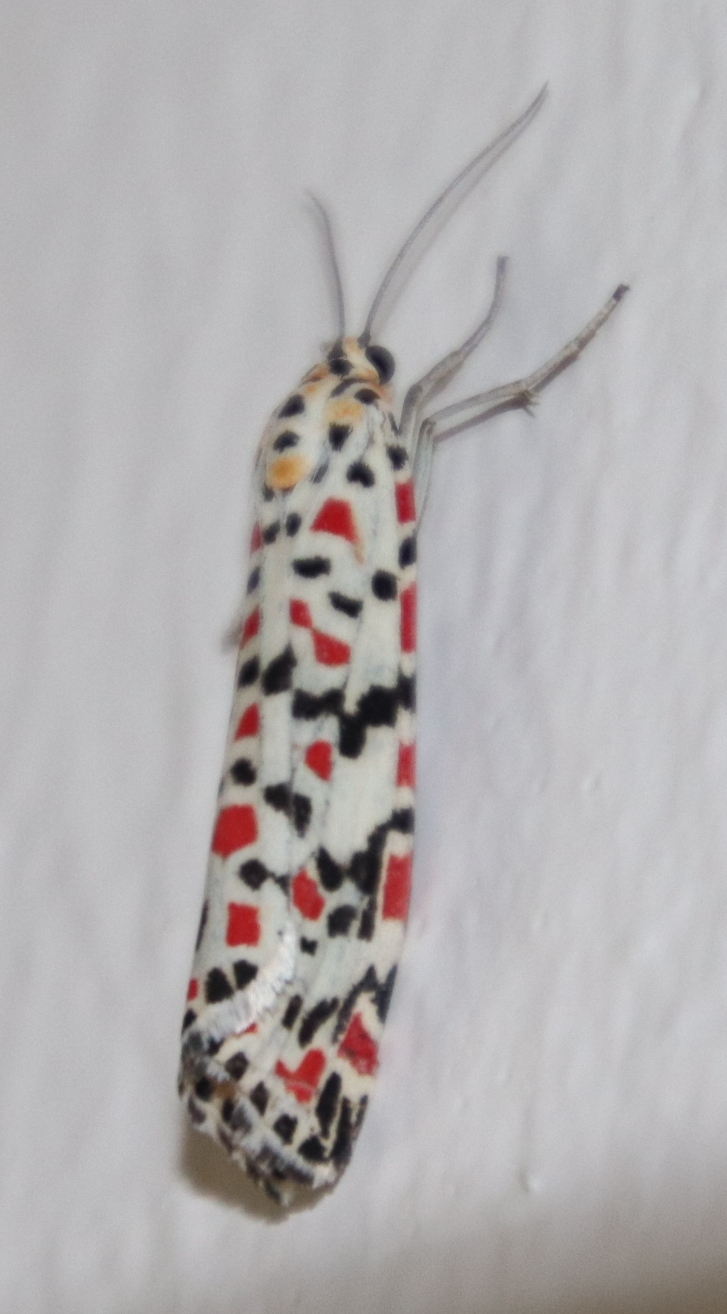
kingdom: Animalia
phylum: Arthropoda
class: Insecta
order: Lepidoptera
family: Erebidae
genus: Utetheisa
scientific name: Utetheisa pulchella
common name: Crimson speckled
